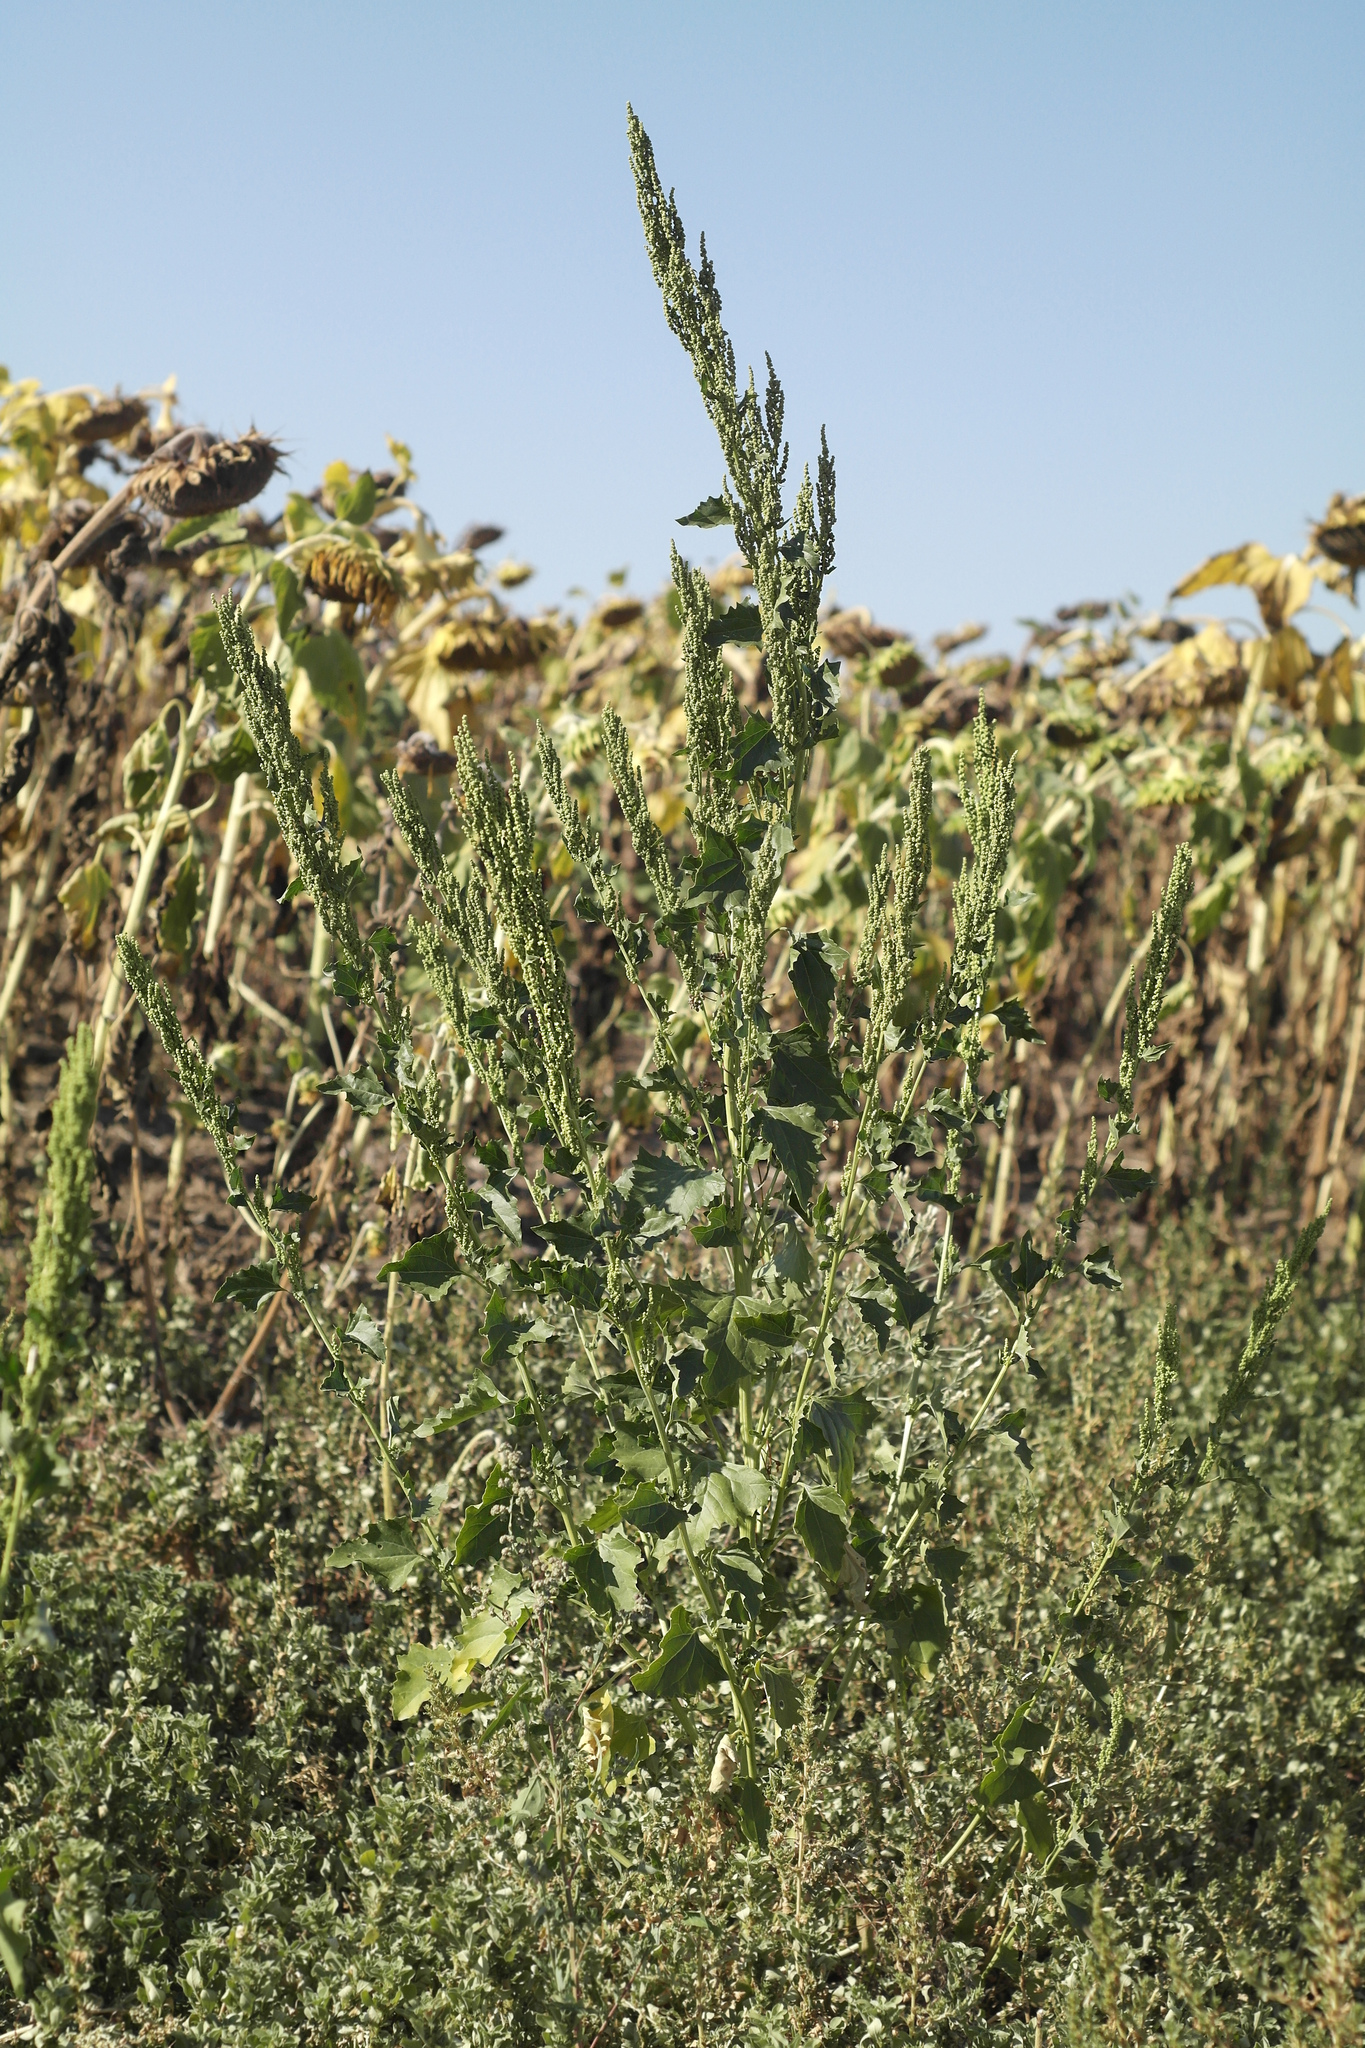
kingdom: Plantae
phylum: Tracheophyta
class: Magnoliopsida
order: Caryophyllales
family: Amaranthaceae
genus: Oxybasis
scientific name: Oxybasis urbica
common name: City goosefoot
